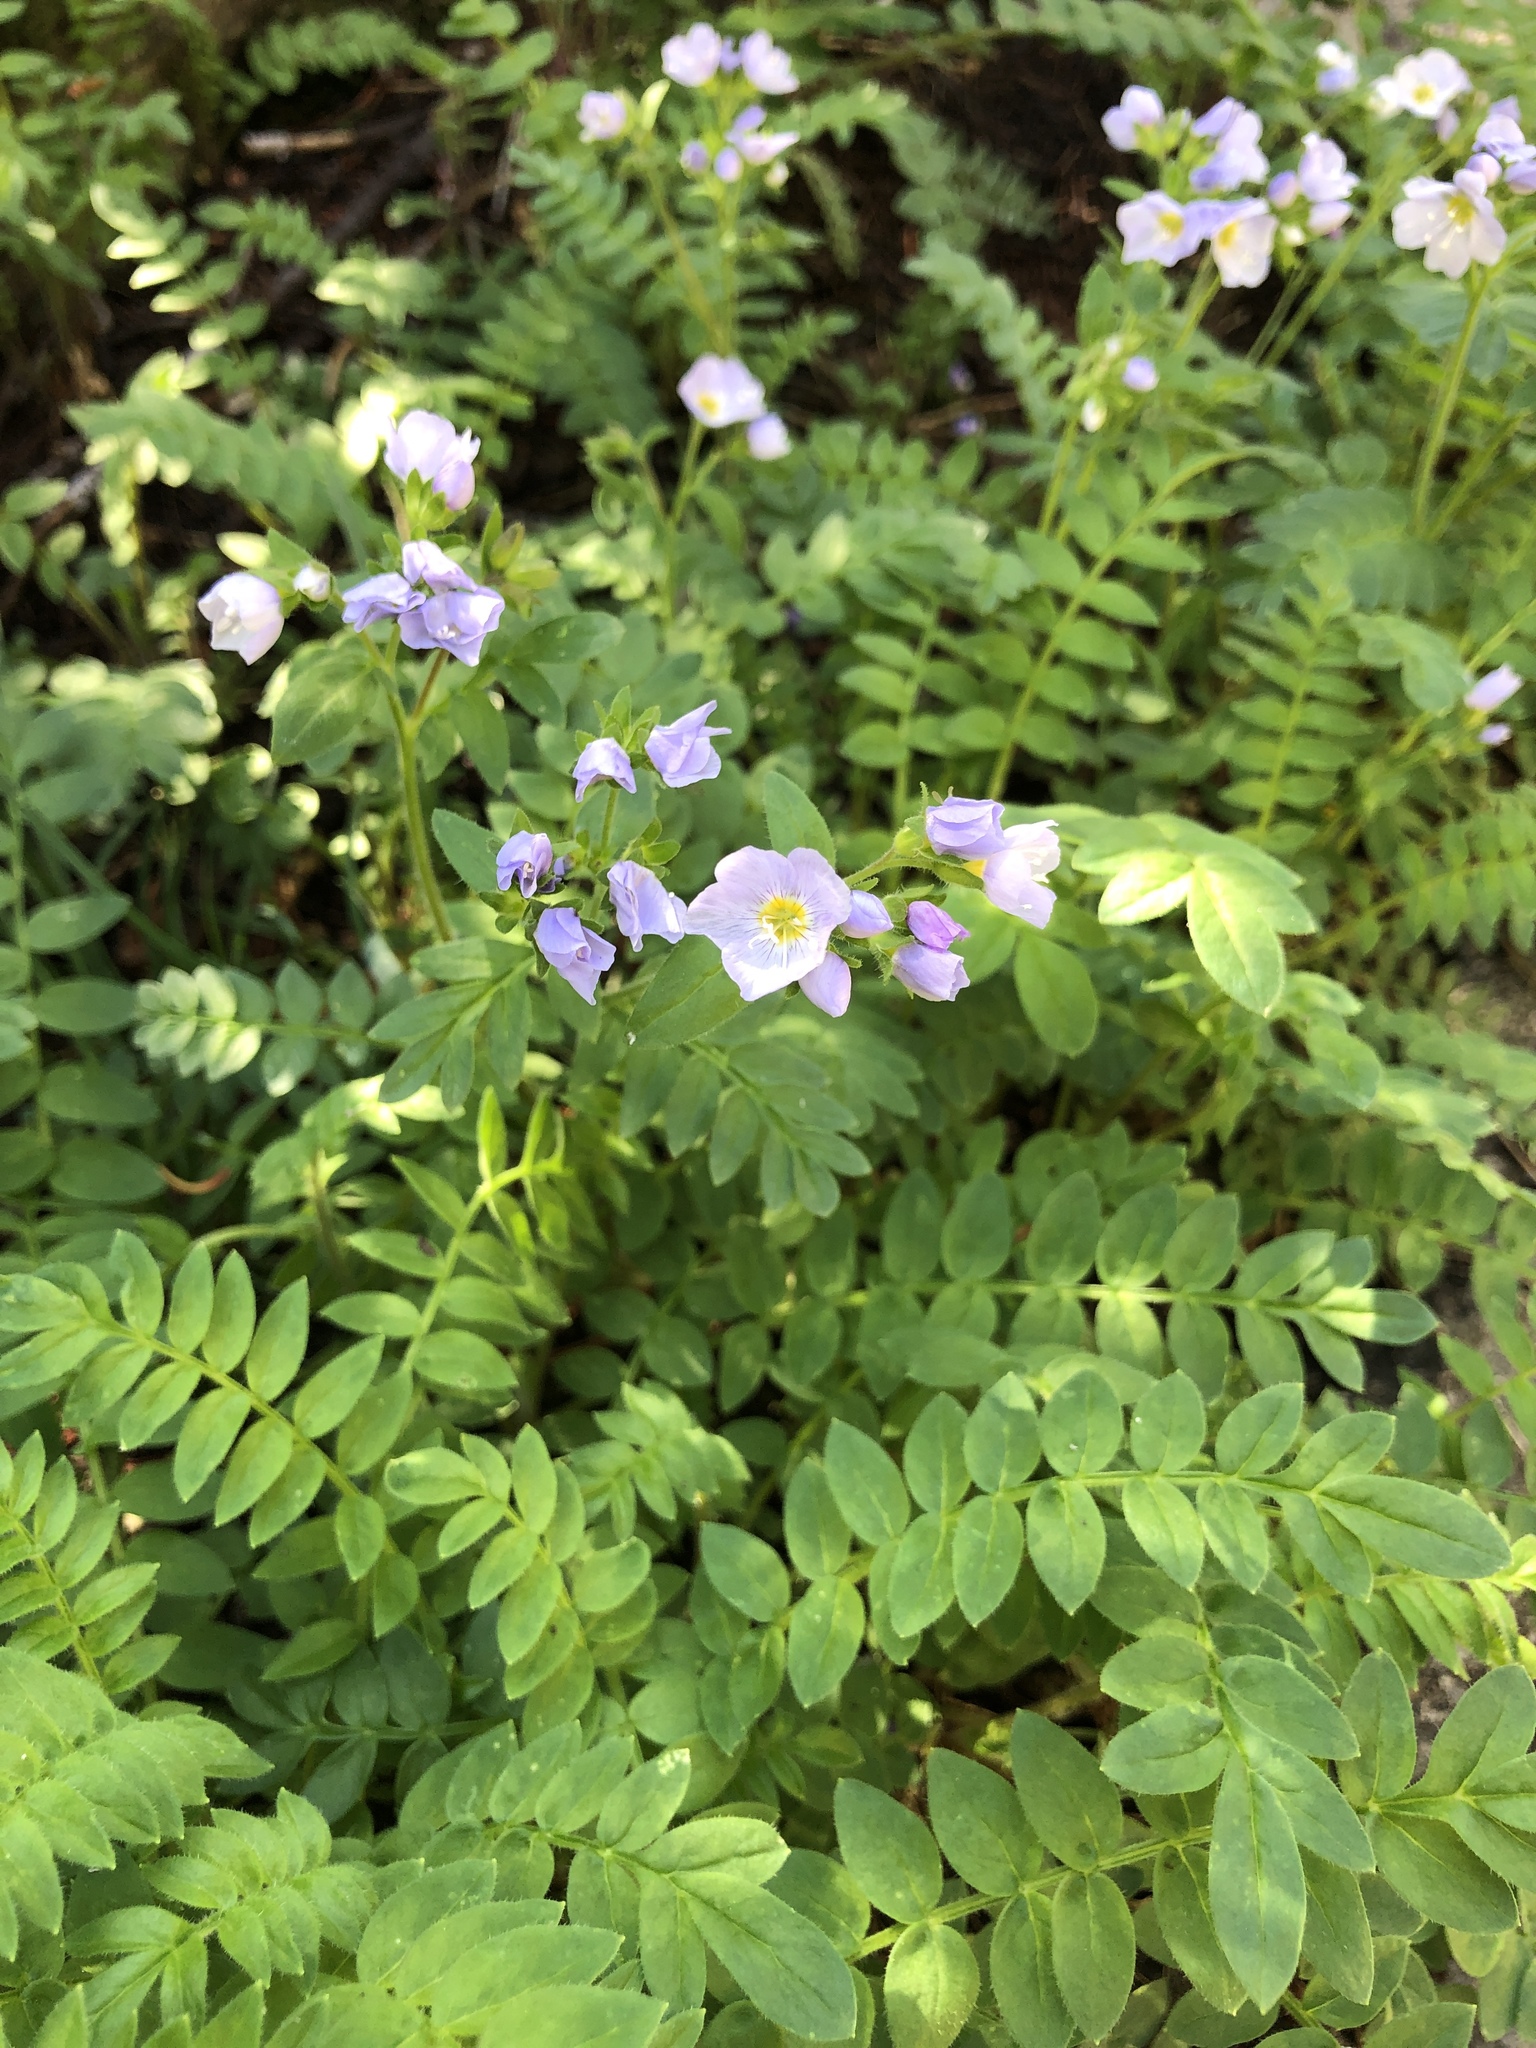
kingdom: Plantae
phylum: Tracheophyta
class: Magnoliopsida
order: Ericales
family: Polemoniaceae
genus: Polemonium
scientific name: Polemonium pulcherrimum
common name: Short jacob's-ladder
